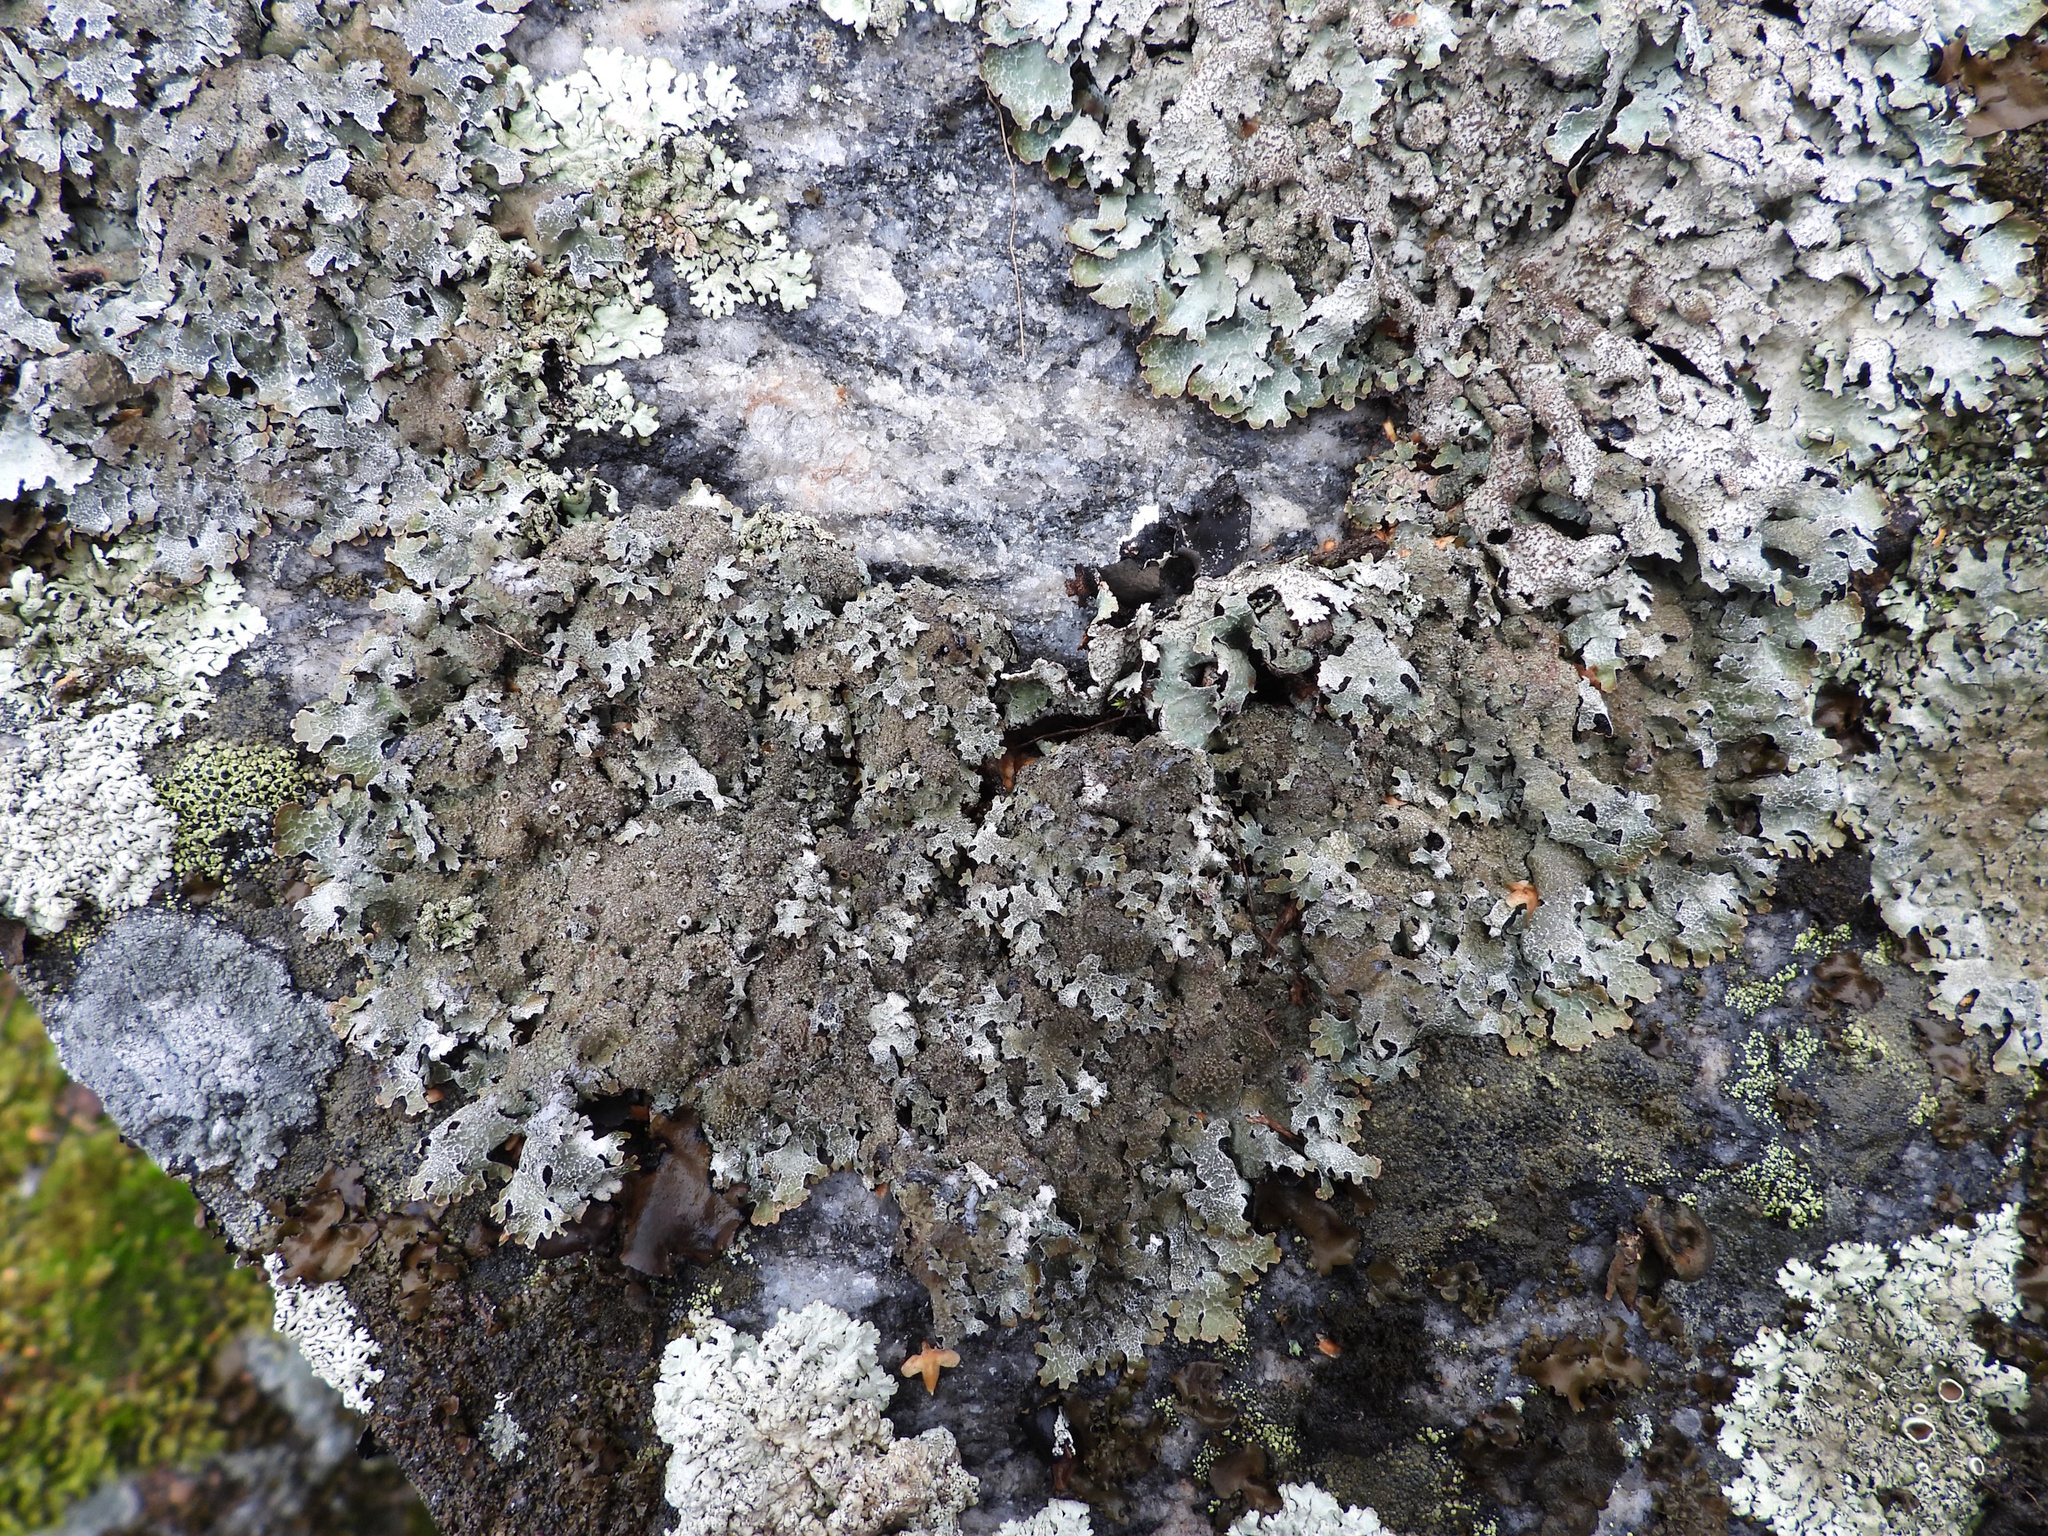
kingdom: Fungi
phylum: Ascomycota
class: Lecanoromycetes
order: Lecanorales
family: Parmeliaceae
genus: Parmelia
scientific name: Parmelia saxatilis
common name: Salted shield lichen
